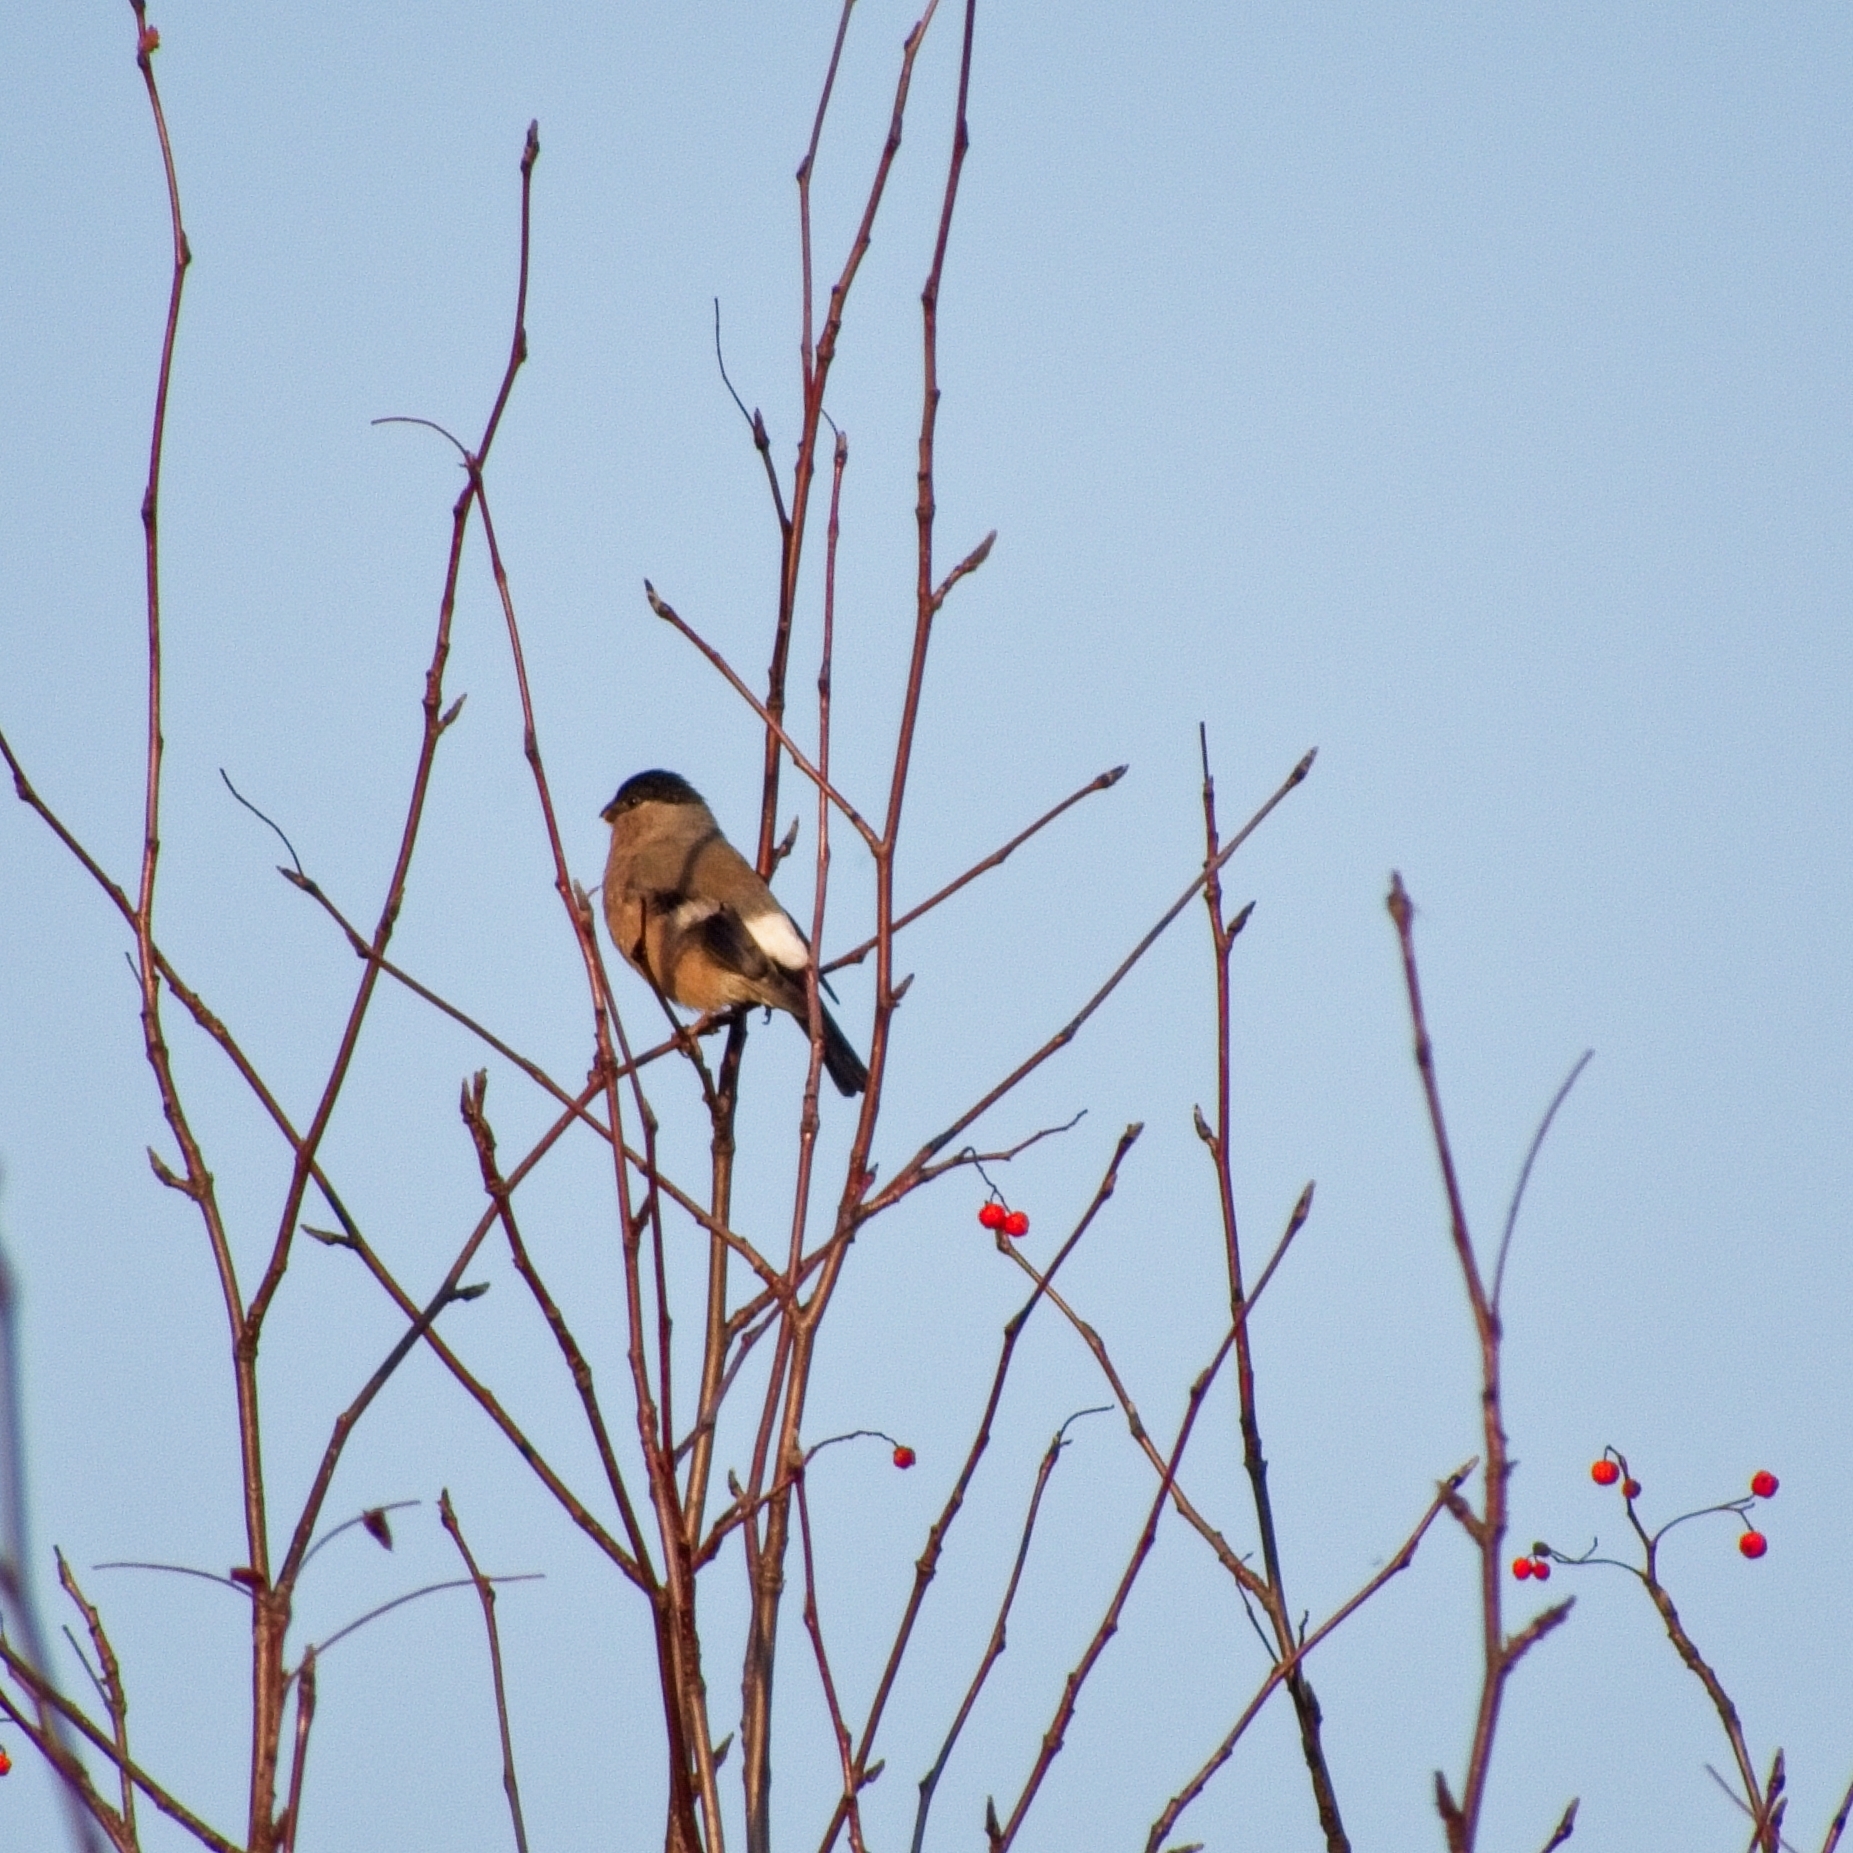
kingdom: Animalia
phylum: Chordata
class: Aves
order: Passeriformes
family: Fringillidae
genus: Pyrrhula
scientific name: Pyrrhula pyrrhula
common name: Eurasian bullfinch
